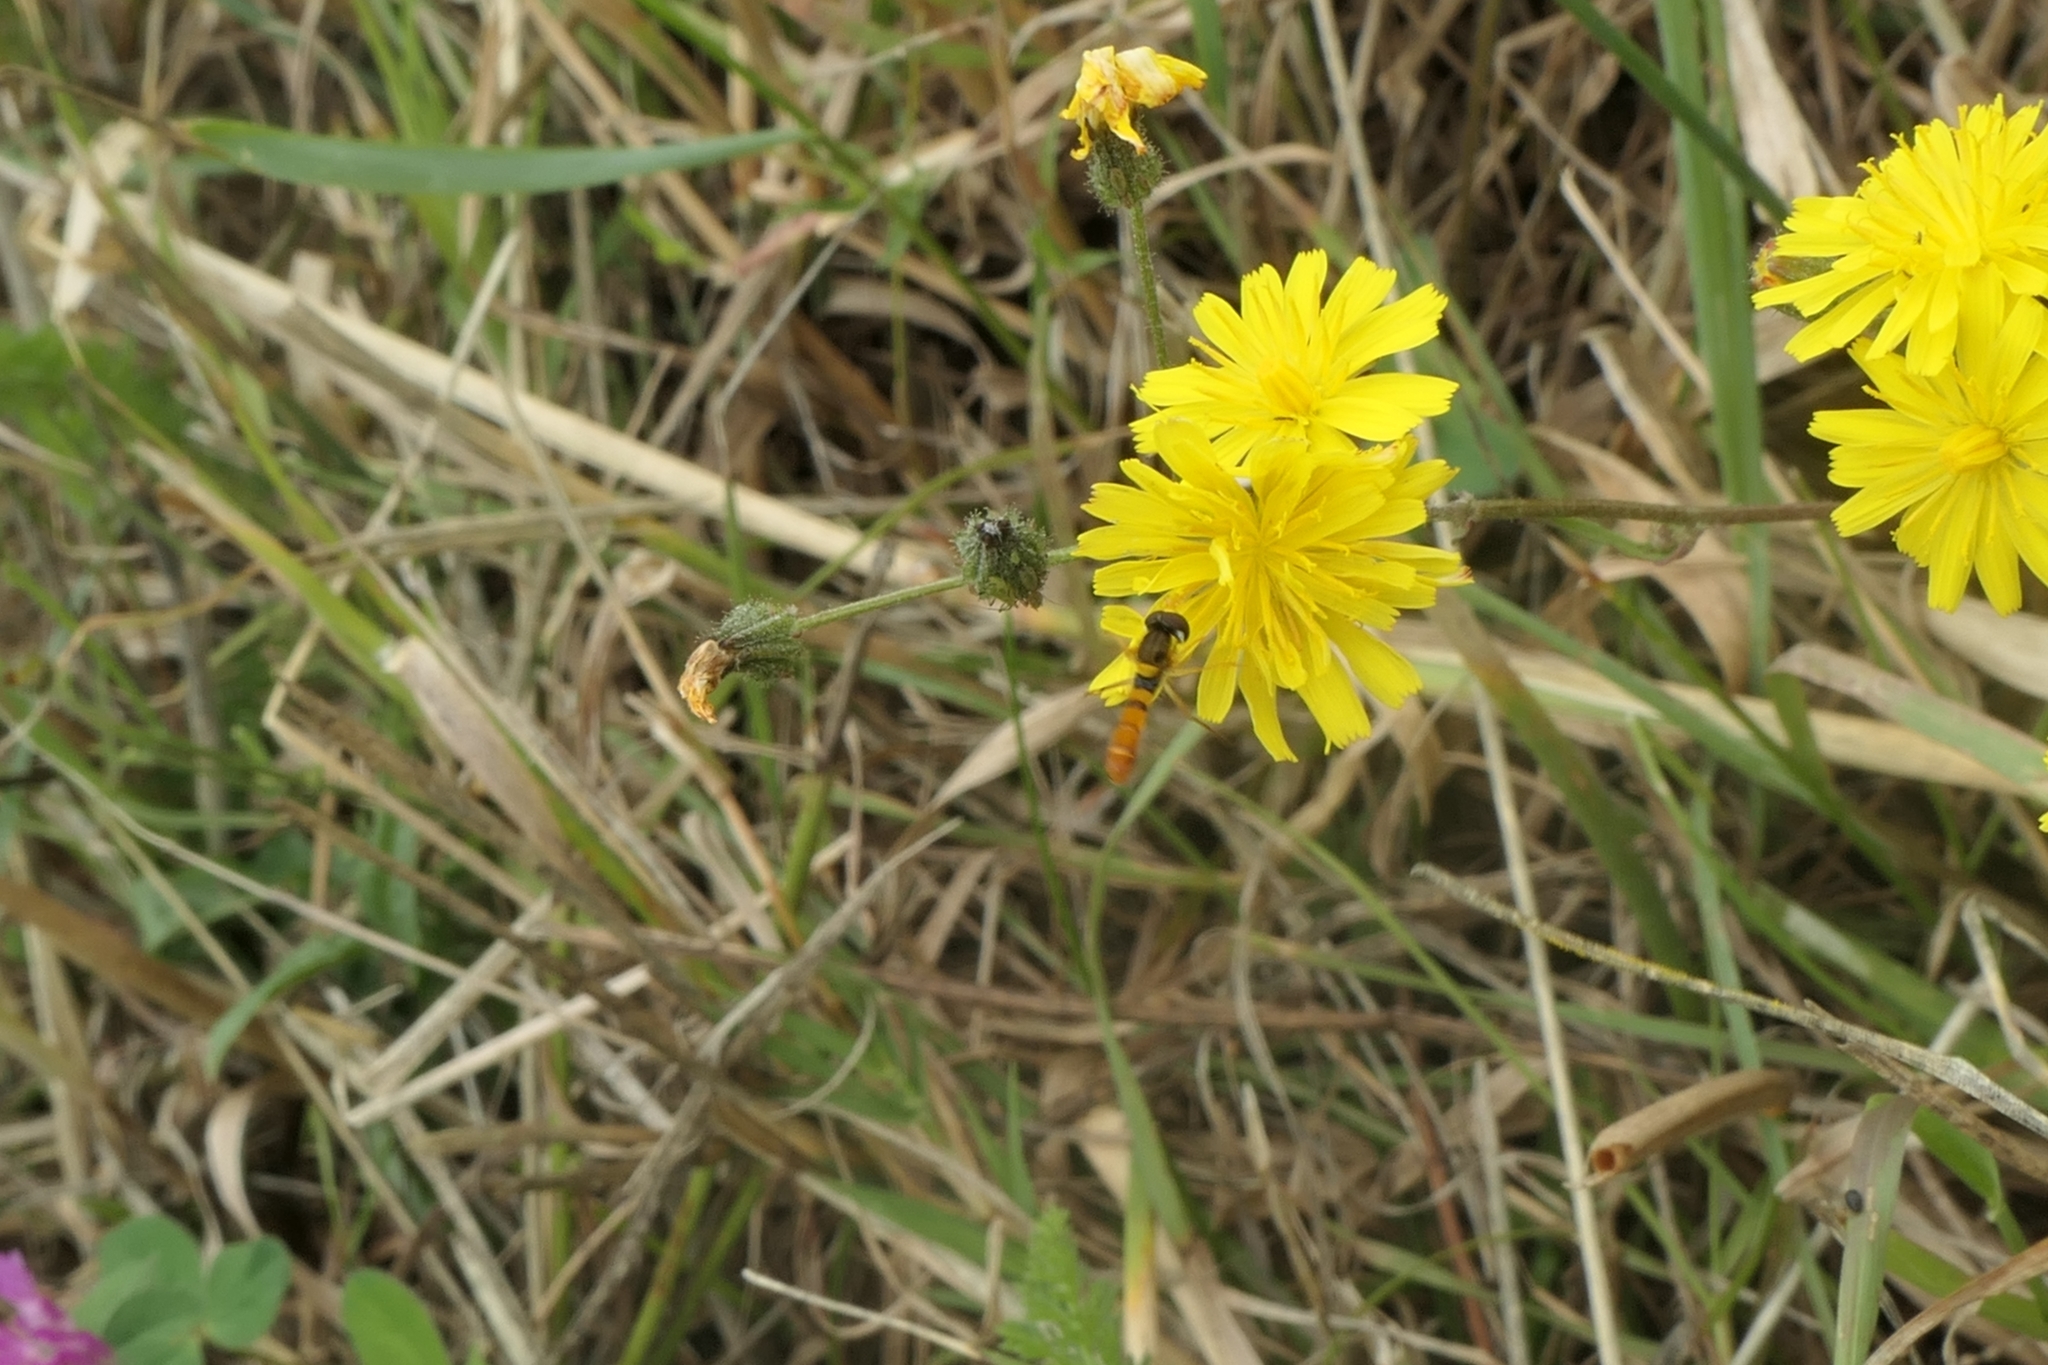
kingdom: Animalia
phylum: Arthropoda
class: Insecta
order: Diptera
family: Syrphidae
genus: Sphaerophoria
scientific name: Sphaerophoria macrogaster
